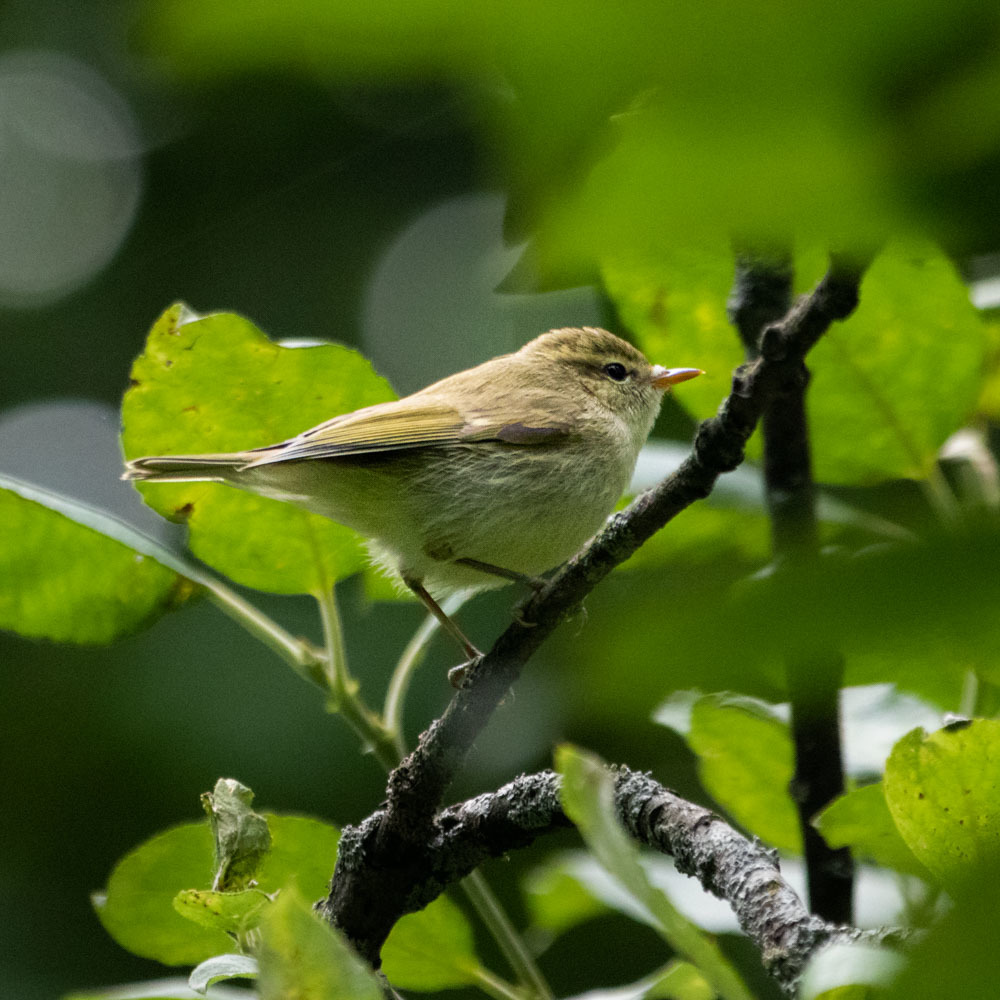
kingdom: Animalia
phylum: Chordata
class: Aves
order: Passeriformes
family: Phylloscopidae
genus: Phylloscopus
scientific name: Phylloscopus trochiloides
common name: Greenish warbler
